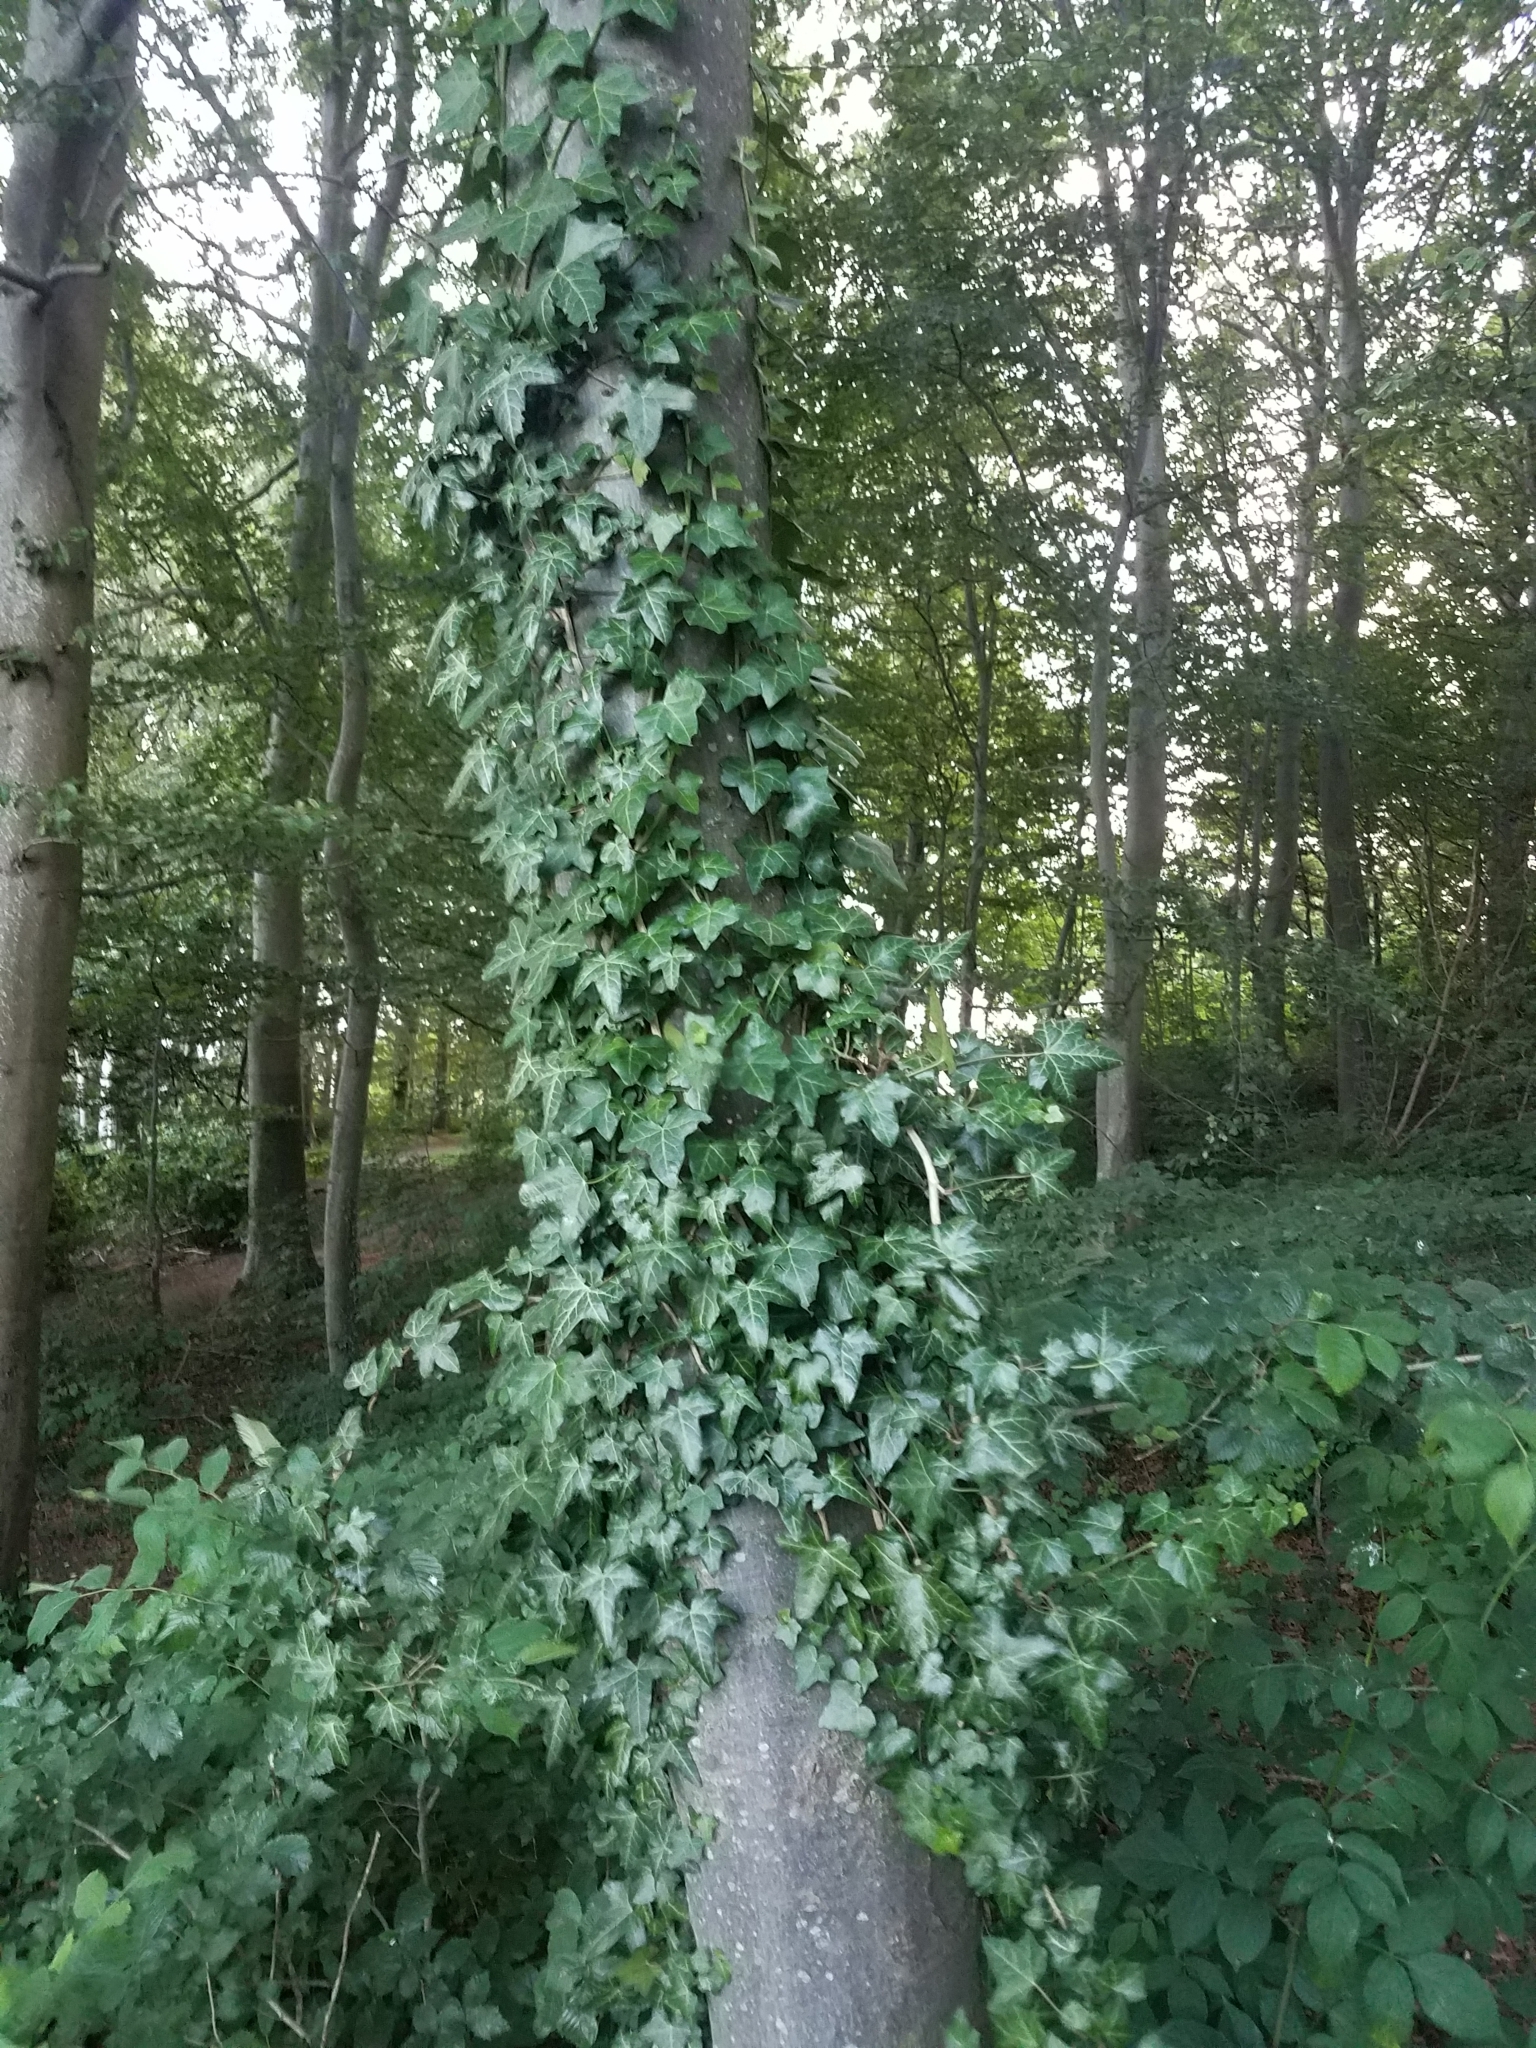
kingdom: Plantae
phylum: Tracheophyta
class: Magnoliopsida
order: Apiales
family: Araliaceae
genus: Hedera
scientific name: Hedera helix
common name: Ivy
